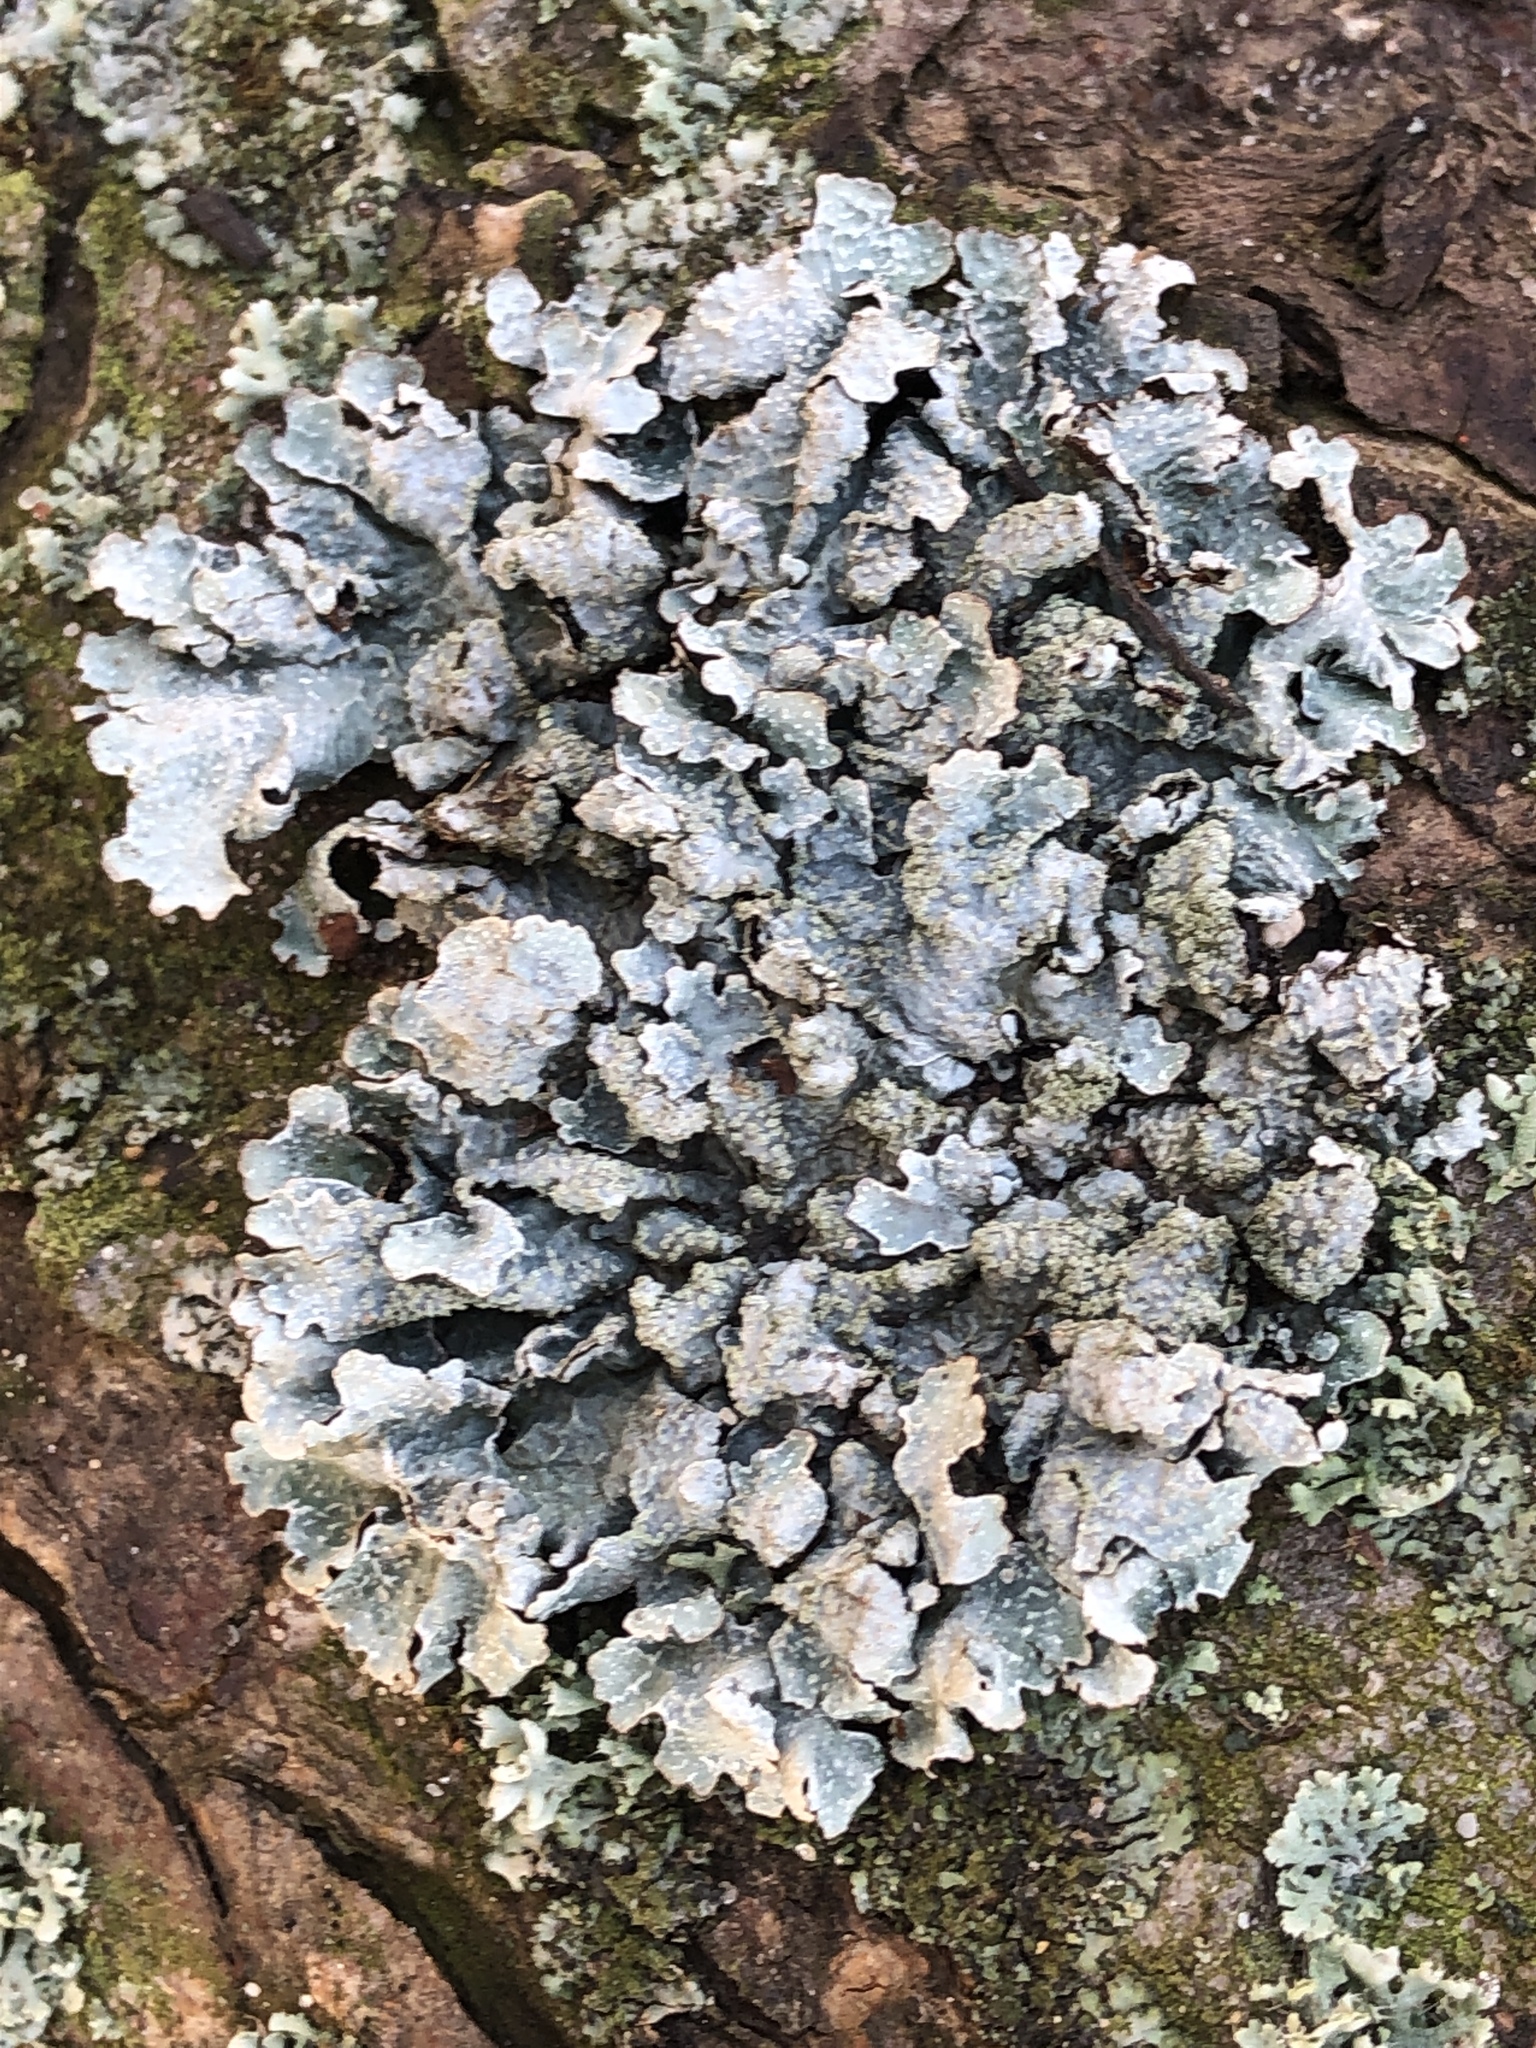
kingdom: Fungi
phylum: Ascomycota
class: Lecanoromycetes
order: Lecanorales
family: Parmeliaceae
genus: Parmelia
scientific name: Parmelia sulcata
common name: Netted shield lichen
